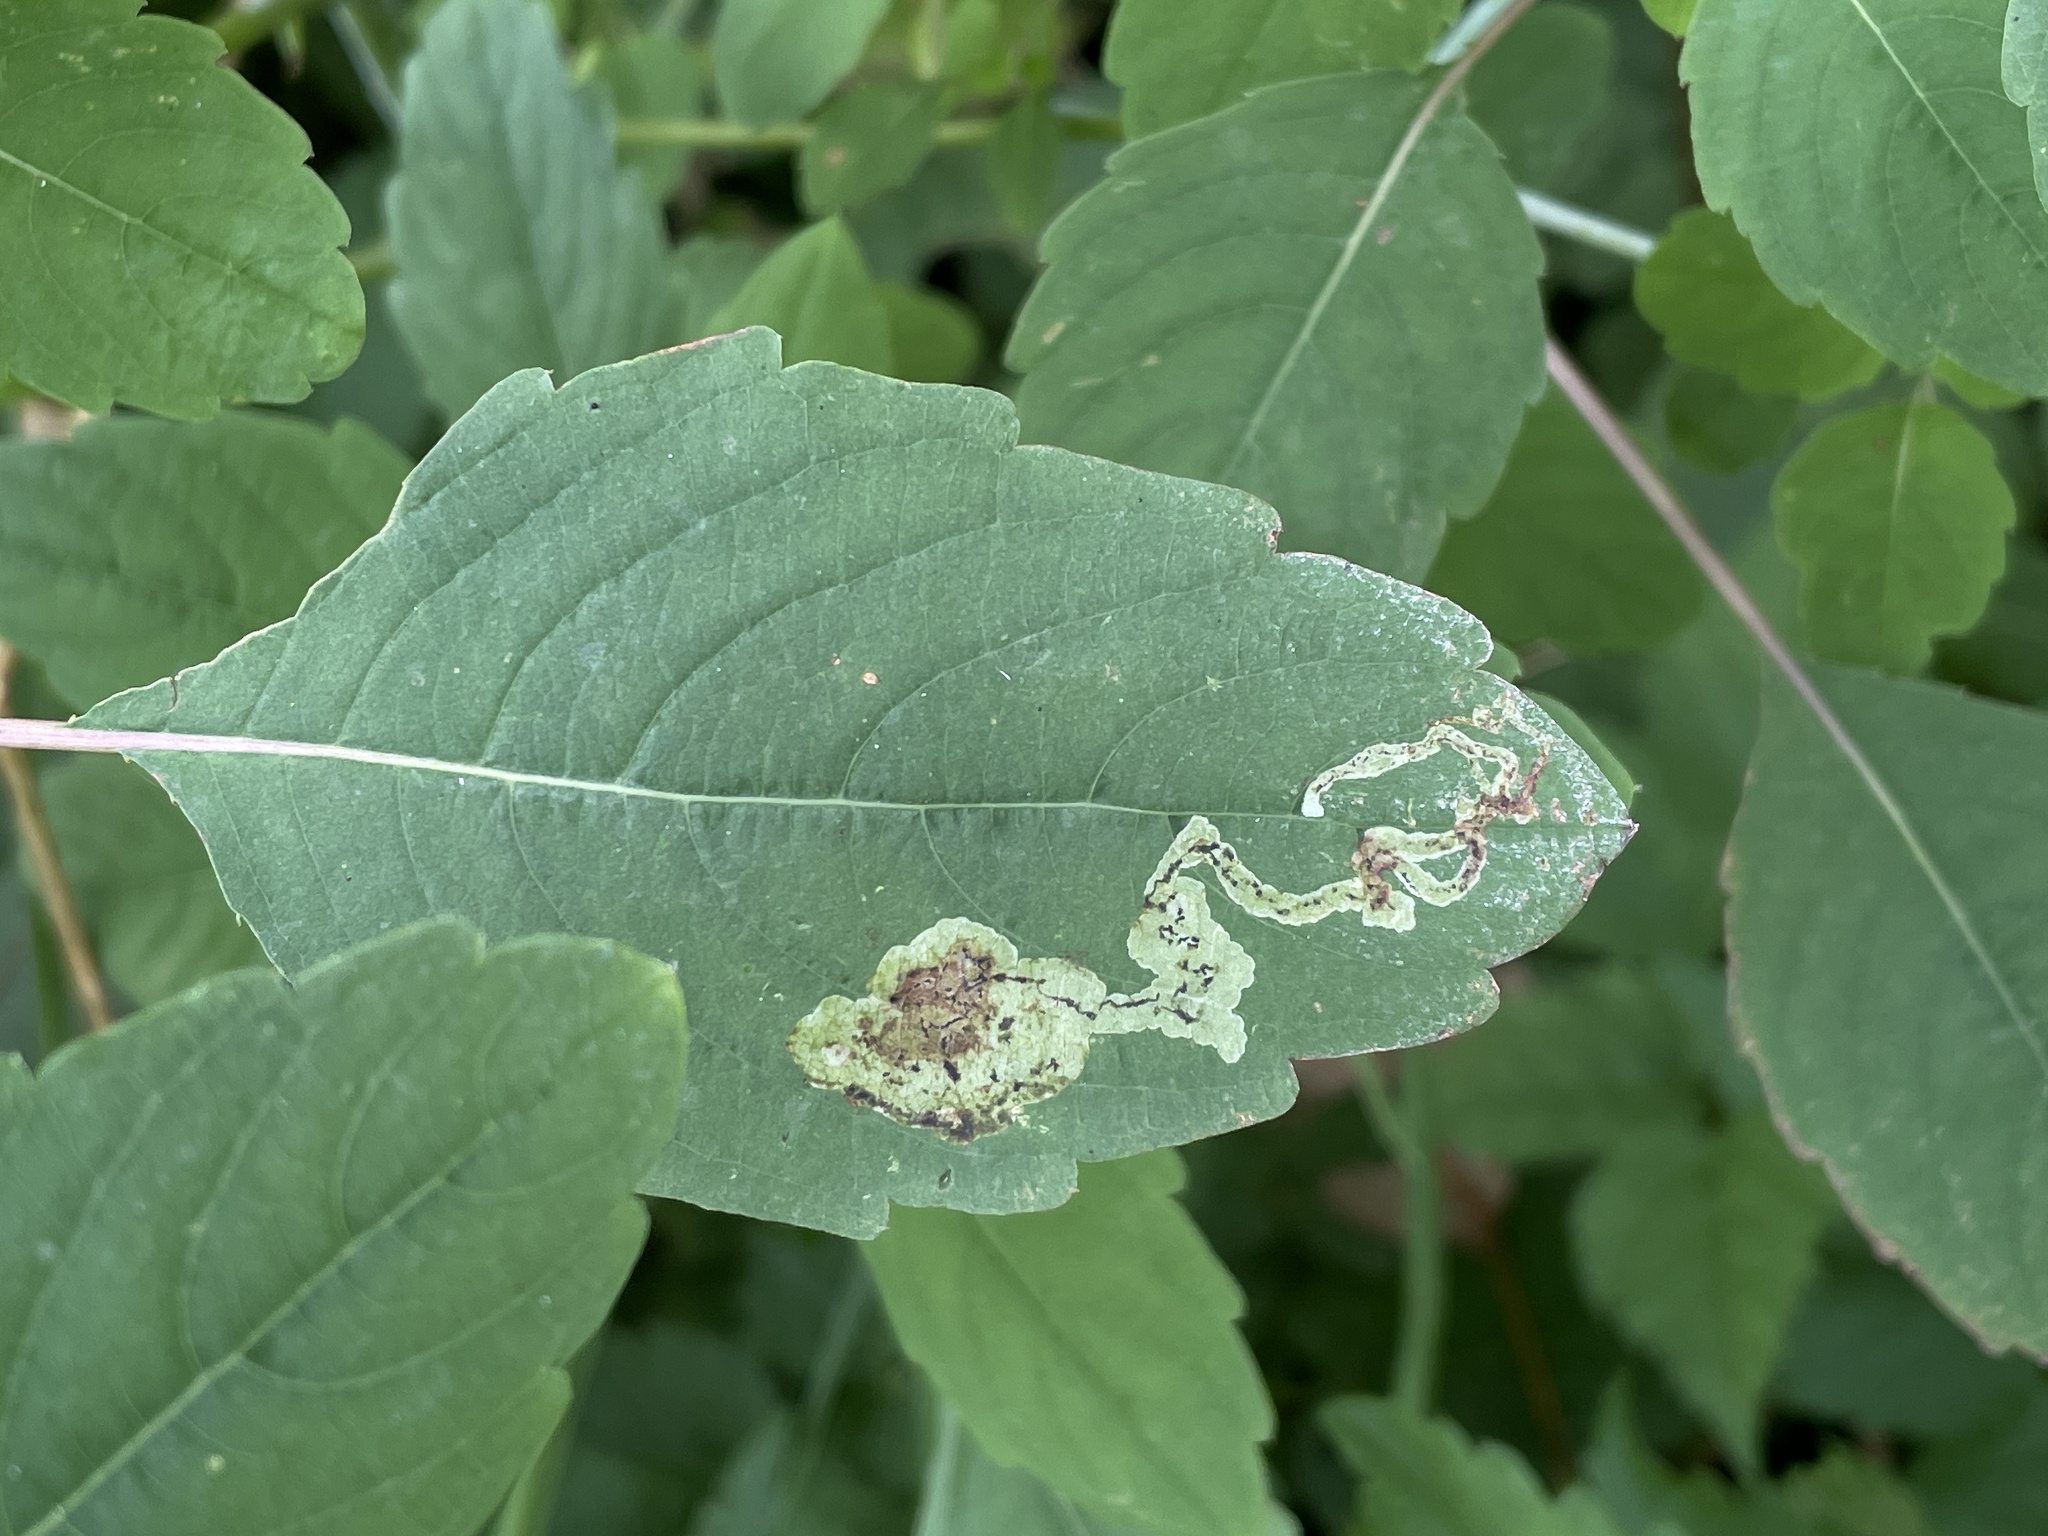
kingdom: Animalia
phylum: Arthropoda
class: Insecta
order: Diptera
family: Agromyzidae
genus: Phytoliriomyza
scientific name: Phytoliriomyza melampyga
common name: Jewelweed leaf-miner fly
